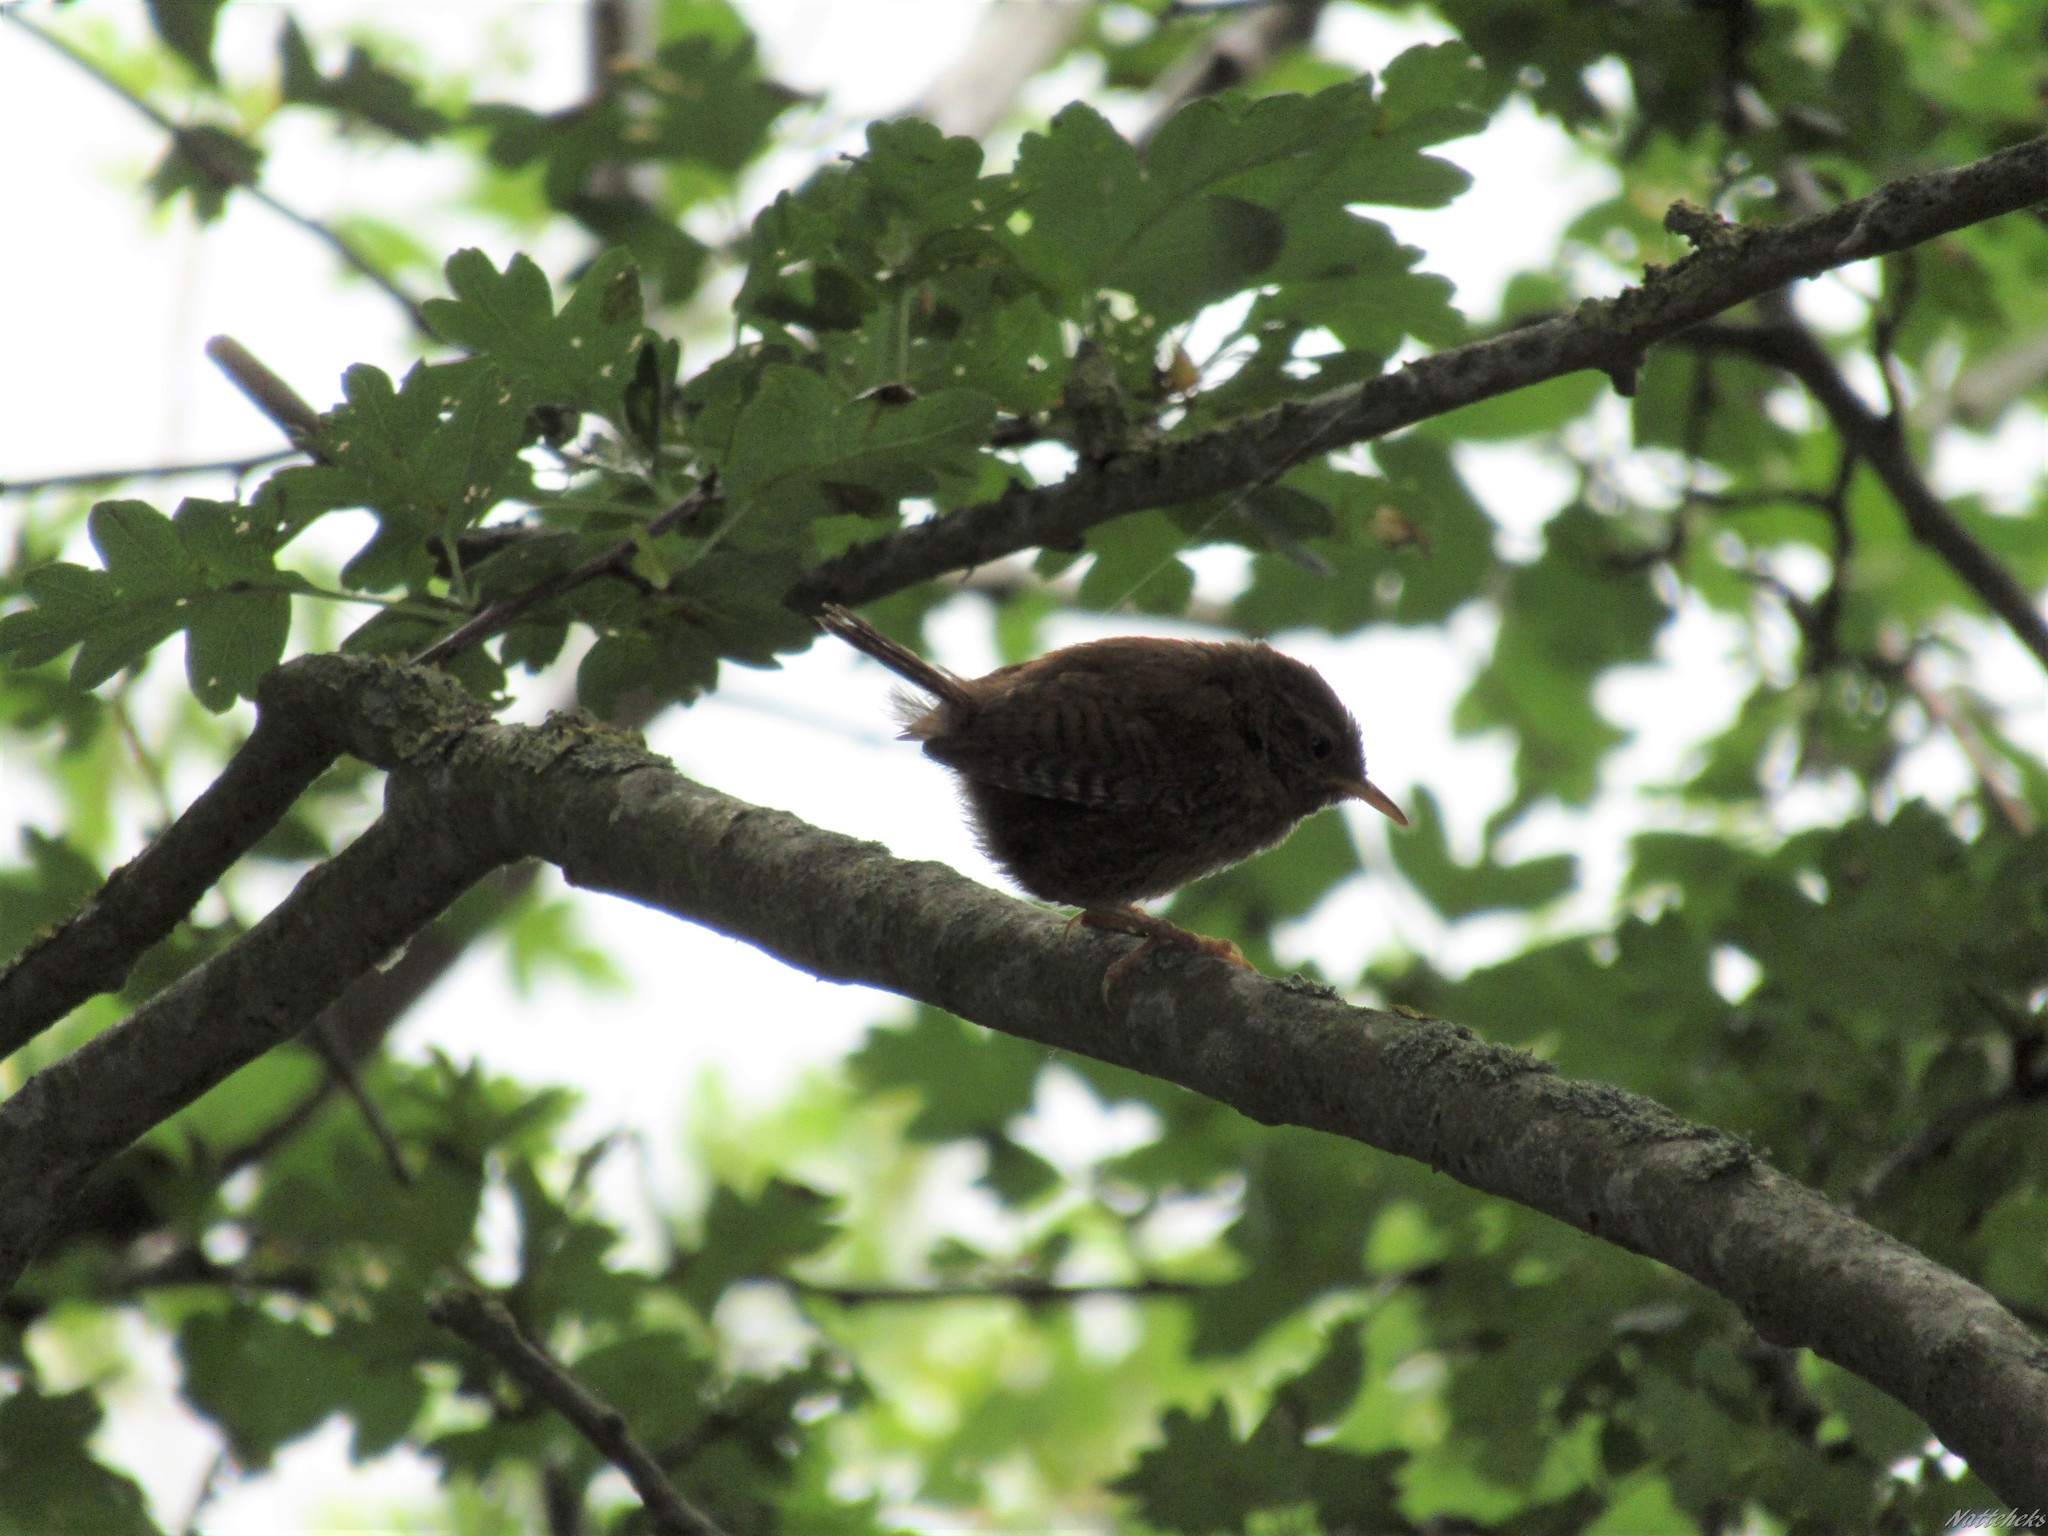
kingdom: Animalia
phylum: Chordata
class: Aves
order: Passeriformes
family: Troglodytidae
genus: Troglodytes
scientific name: Troglodytes troglodytes
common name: Eurasian wren
